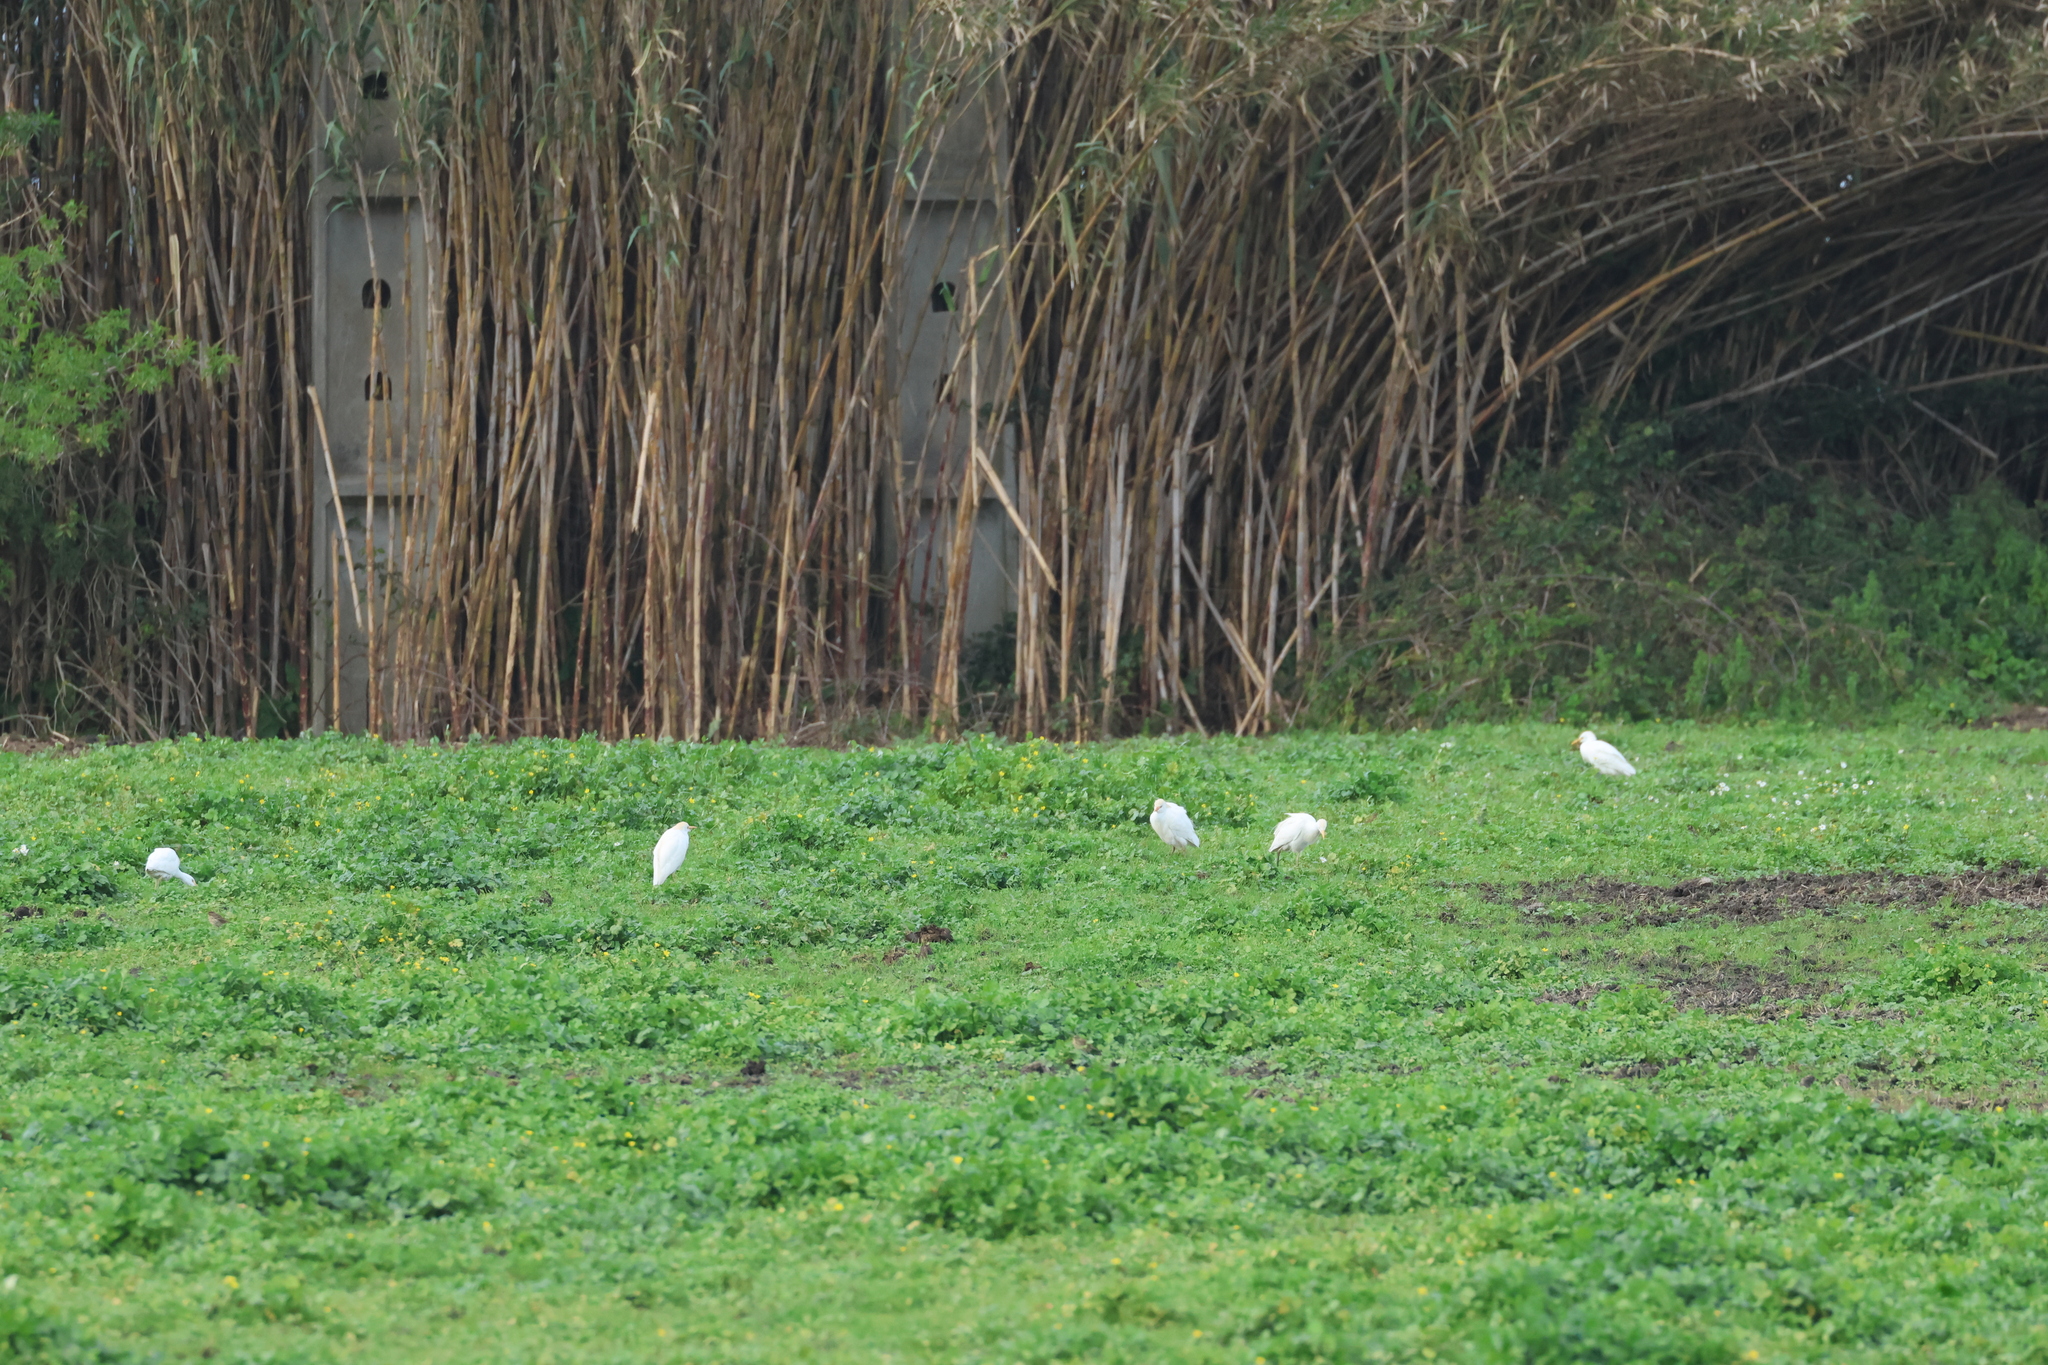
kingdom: Animalia
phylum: Chordata
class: Aves
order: Pelecaniformes
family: Ardeidae
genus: Bubulcus
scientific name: Bubulcus ibis
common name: Cattle egret
